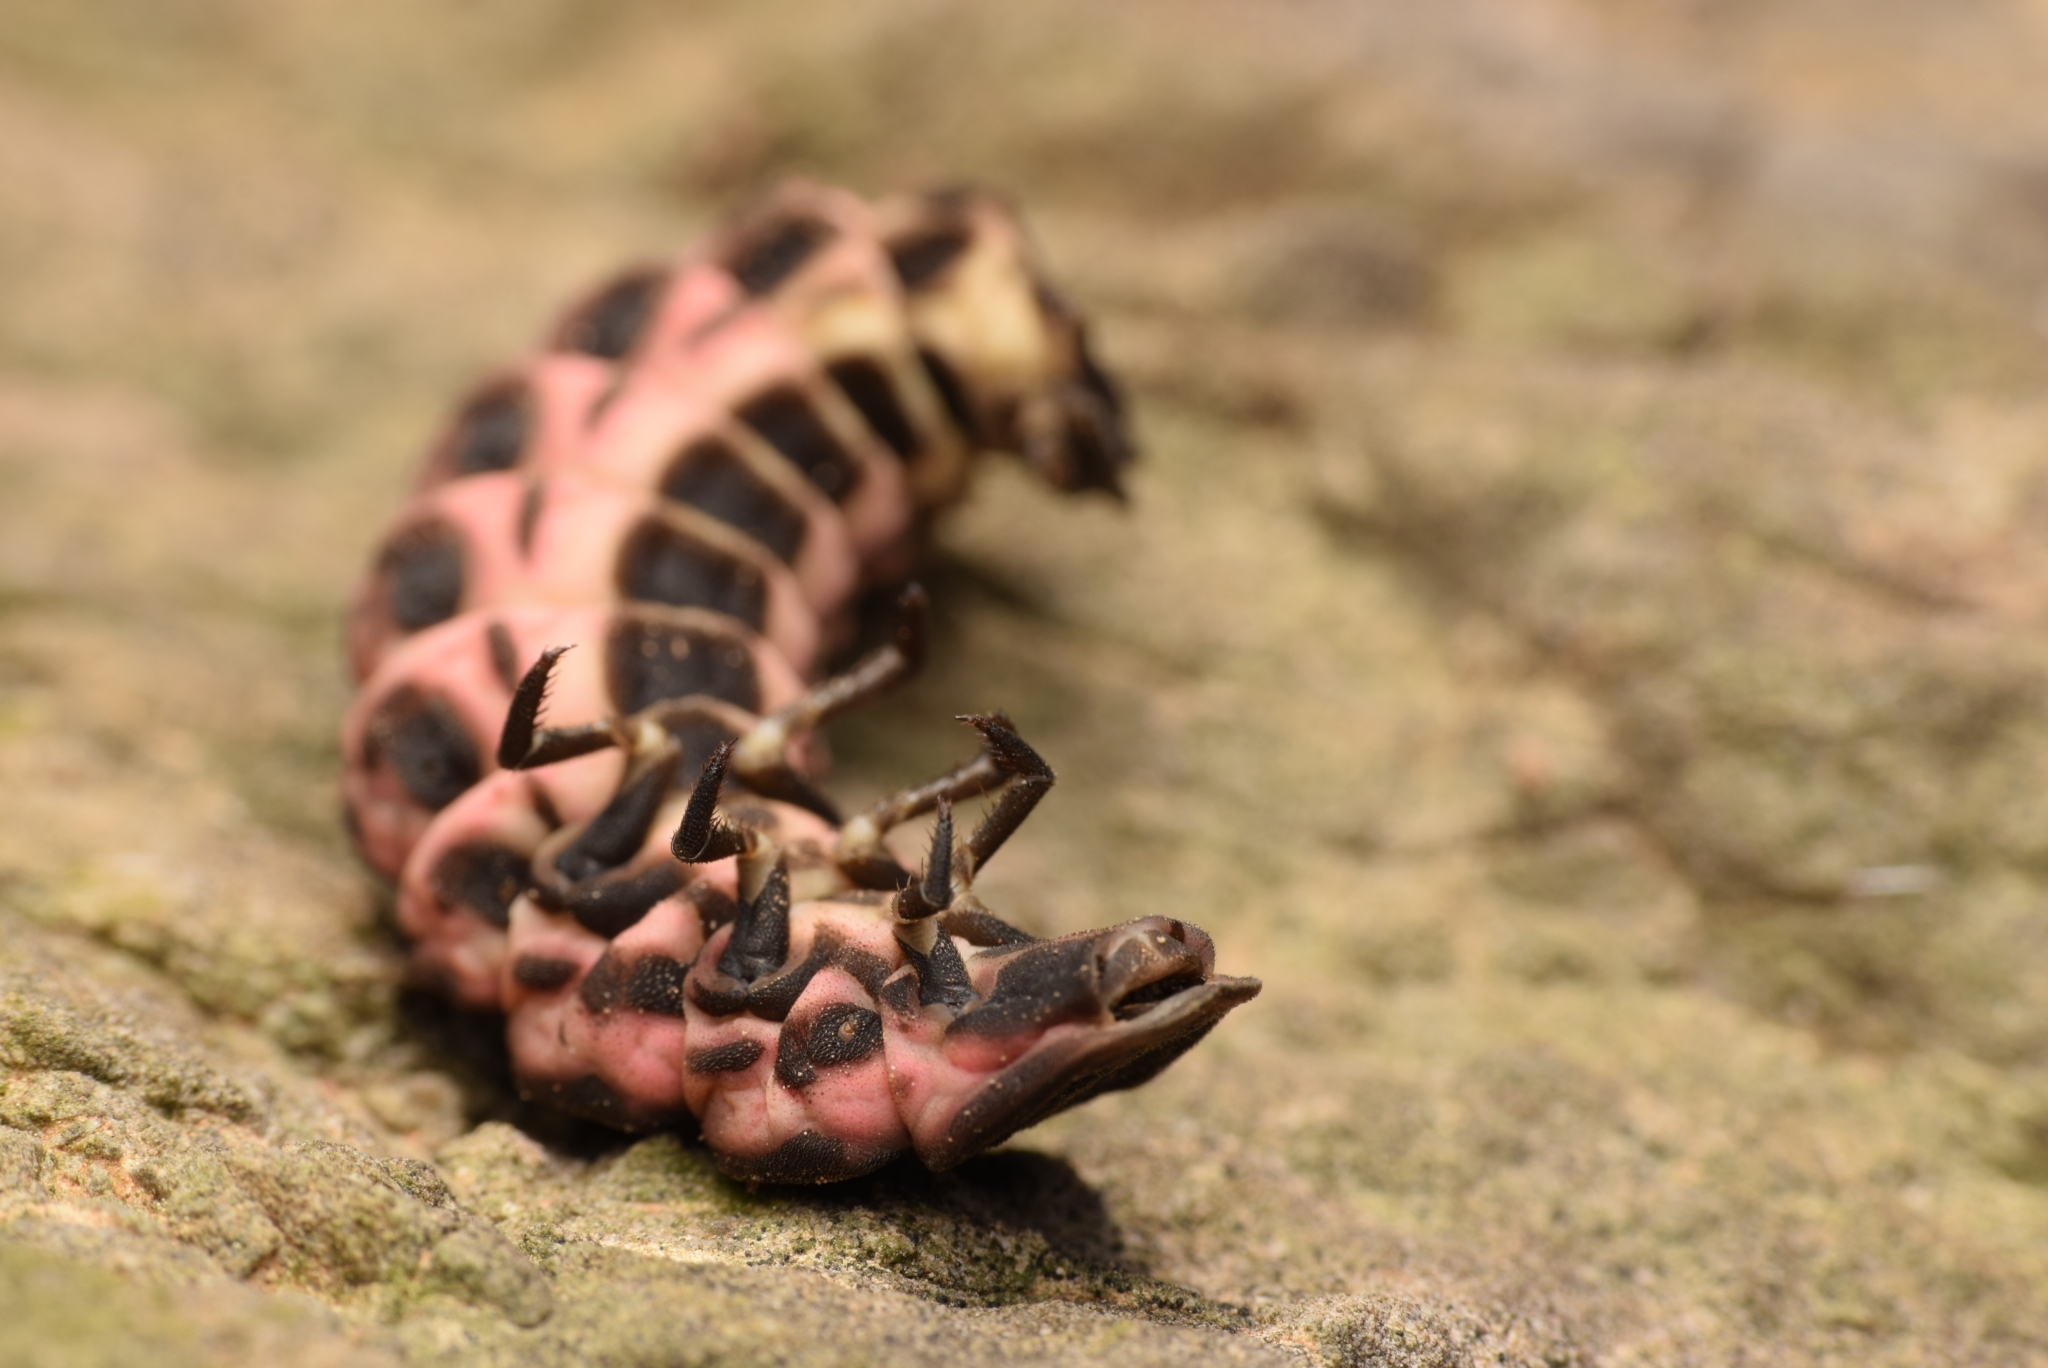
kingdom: Animalia
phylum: Arthropoda
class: Insecta
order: Coleoptera
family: Lampyridae
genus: Nyctophila
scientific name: Nyctophila reichii
